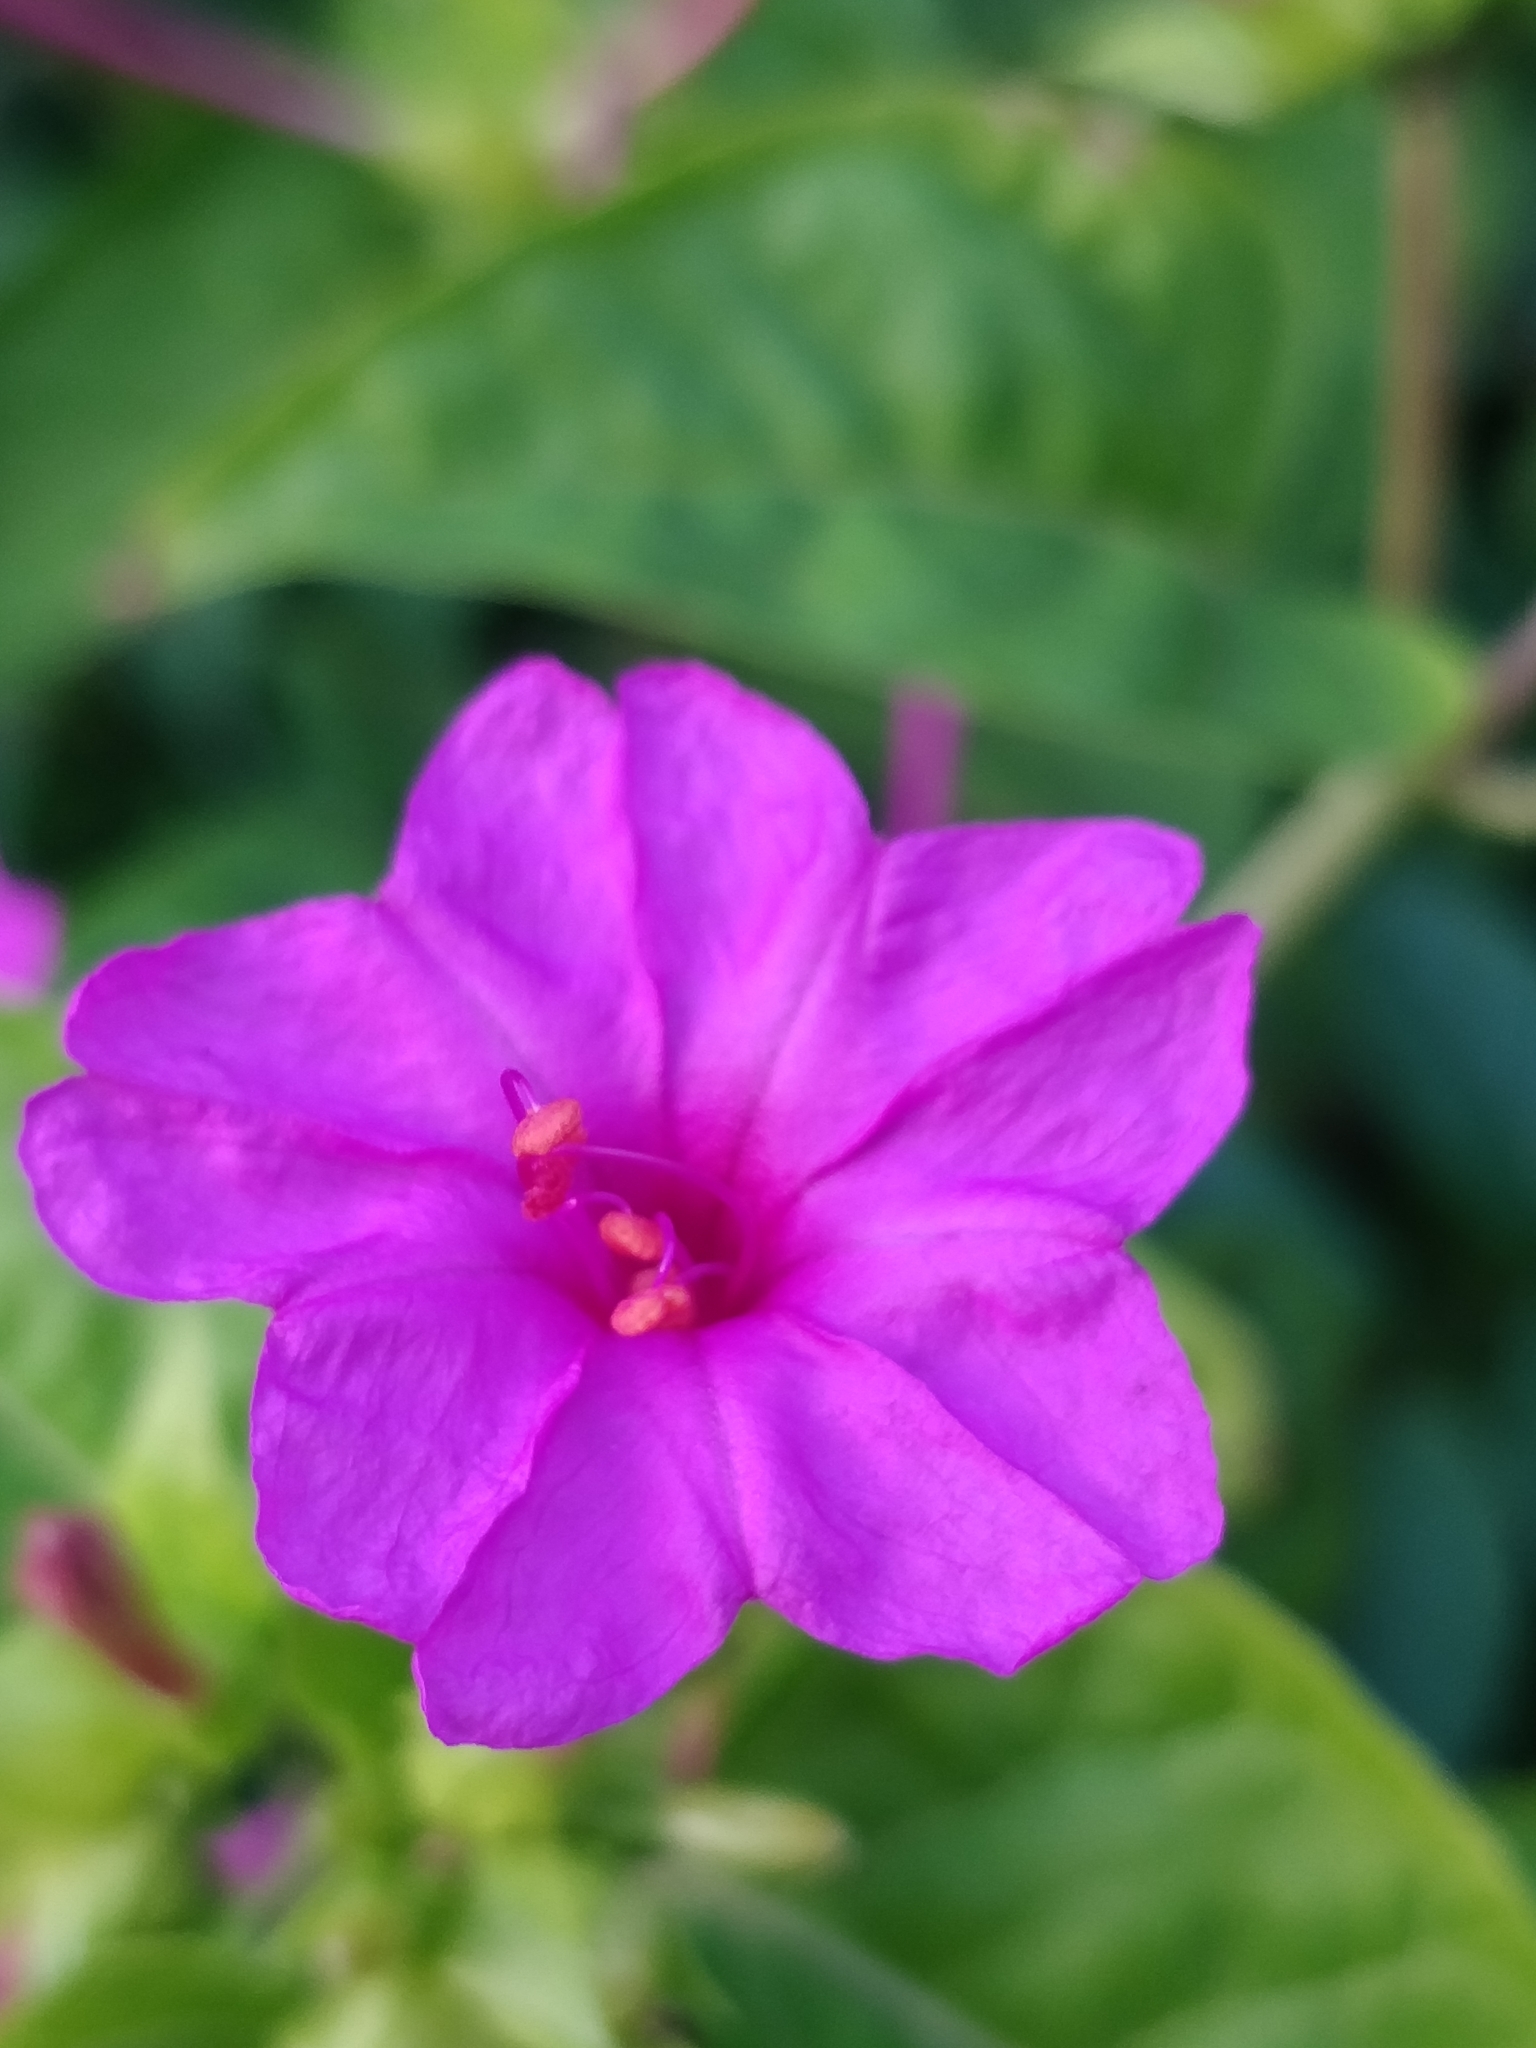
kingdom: Plantae
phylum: Tracheophyta
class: Magnoliopsida
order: Caryophyllales
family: Nyctaginaceae
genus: Mirabilis
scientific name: Mirabilis jalapa
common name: Marvel-of-peru
